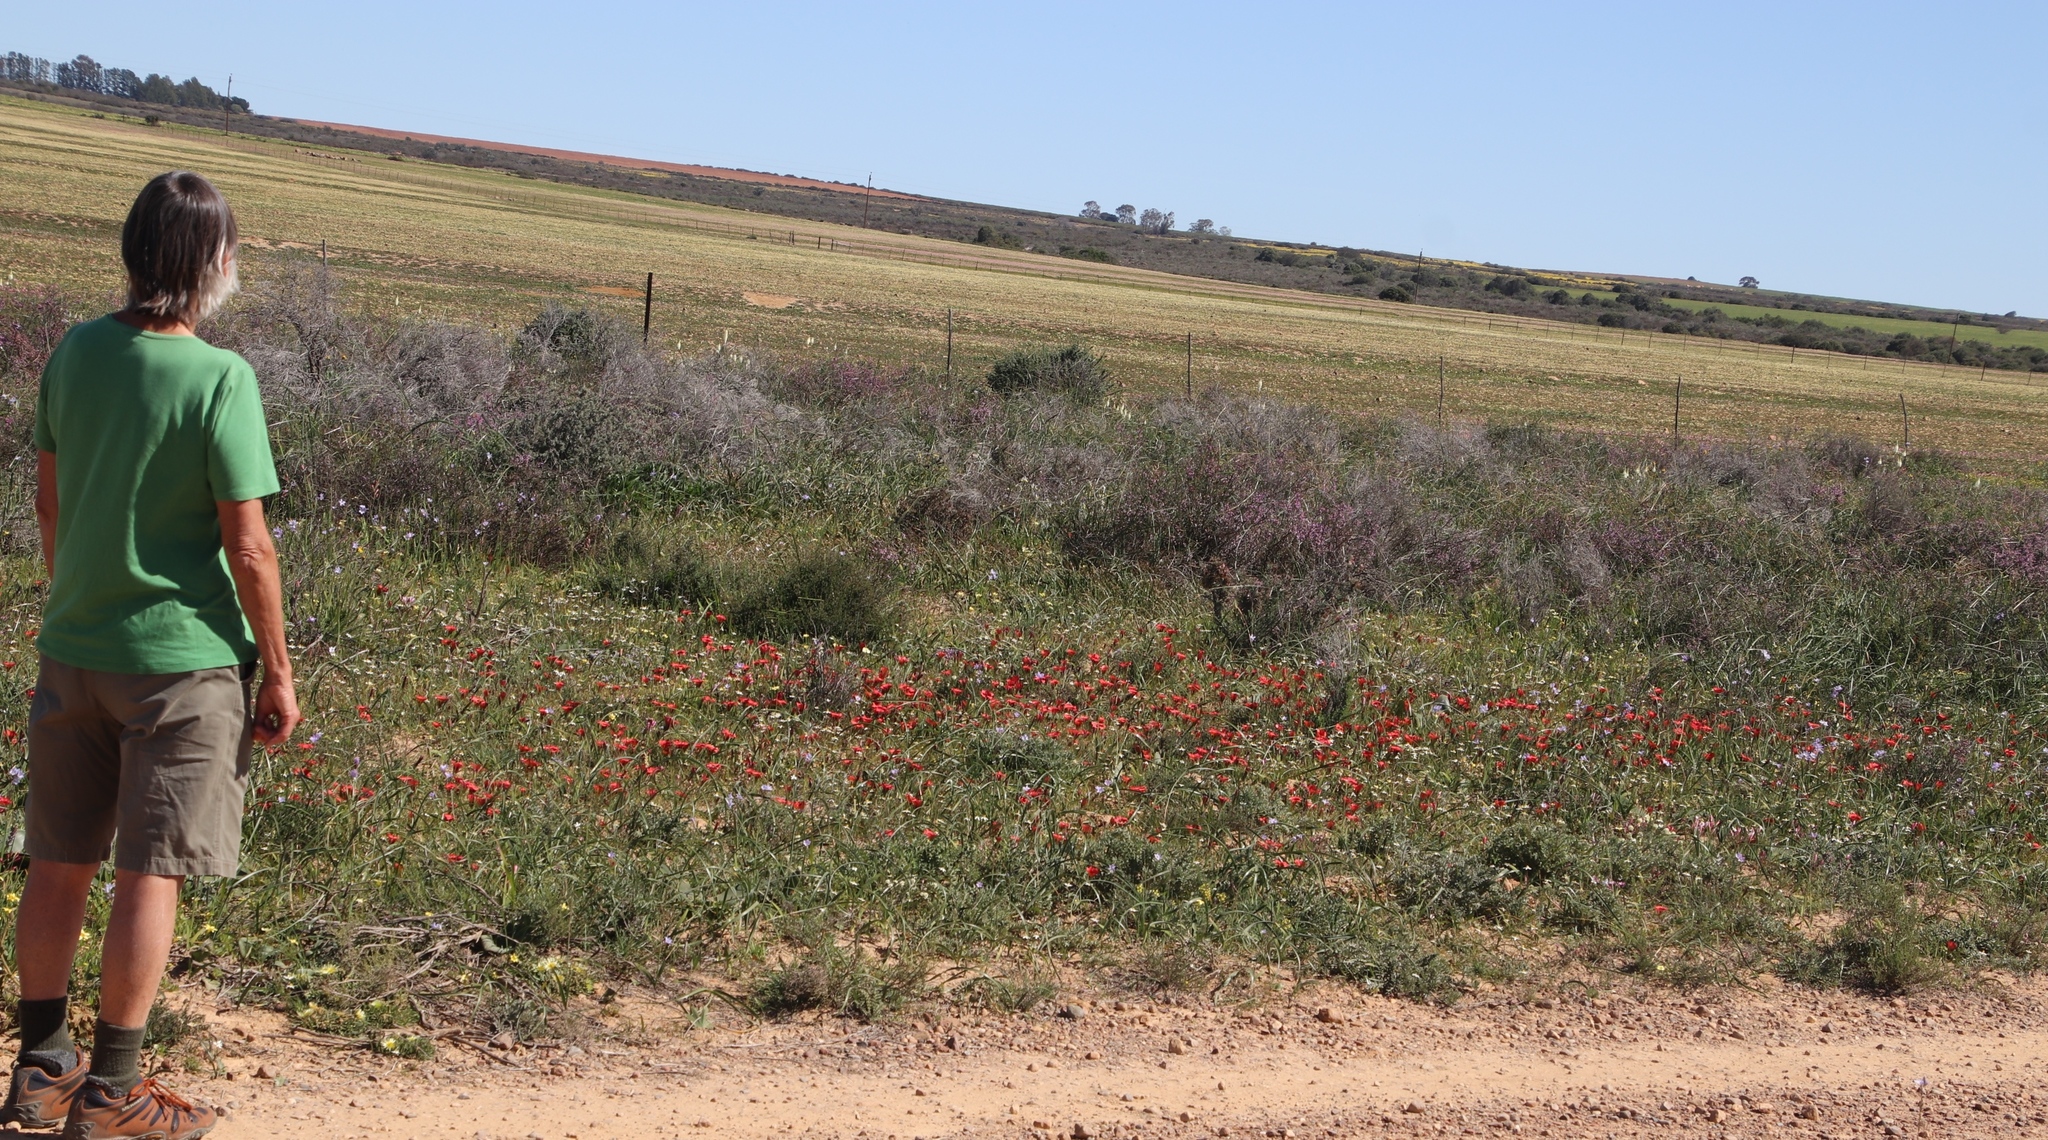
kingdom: Plantae
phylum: Tracheophyta
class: Liliopsida
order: Asparagales
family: Iridaceae
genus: Romulea
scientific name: Romulea sabulosa
